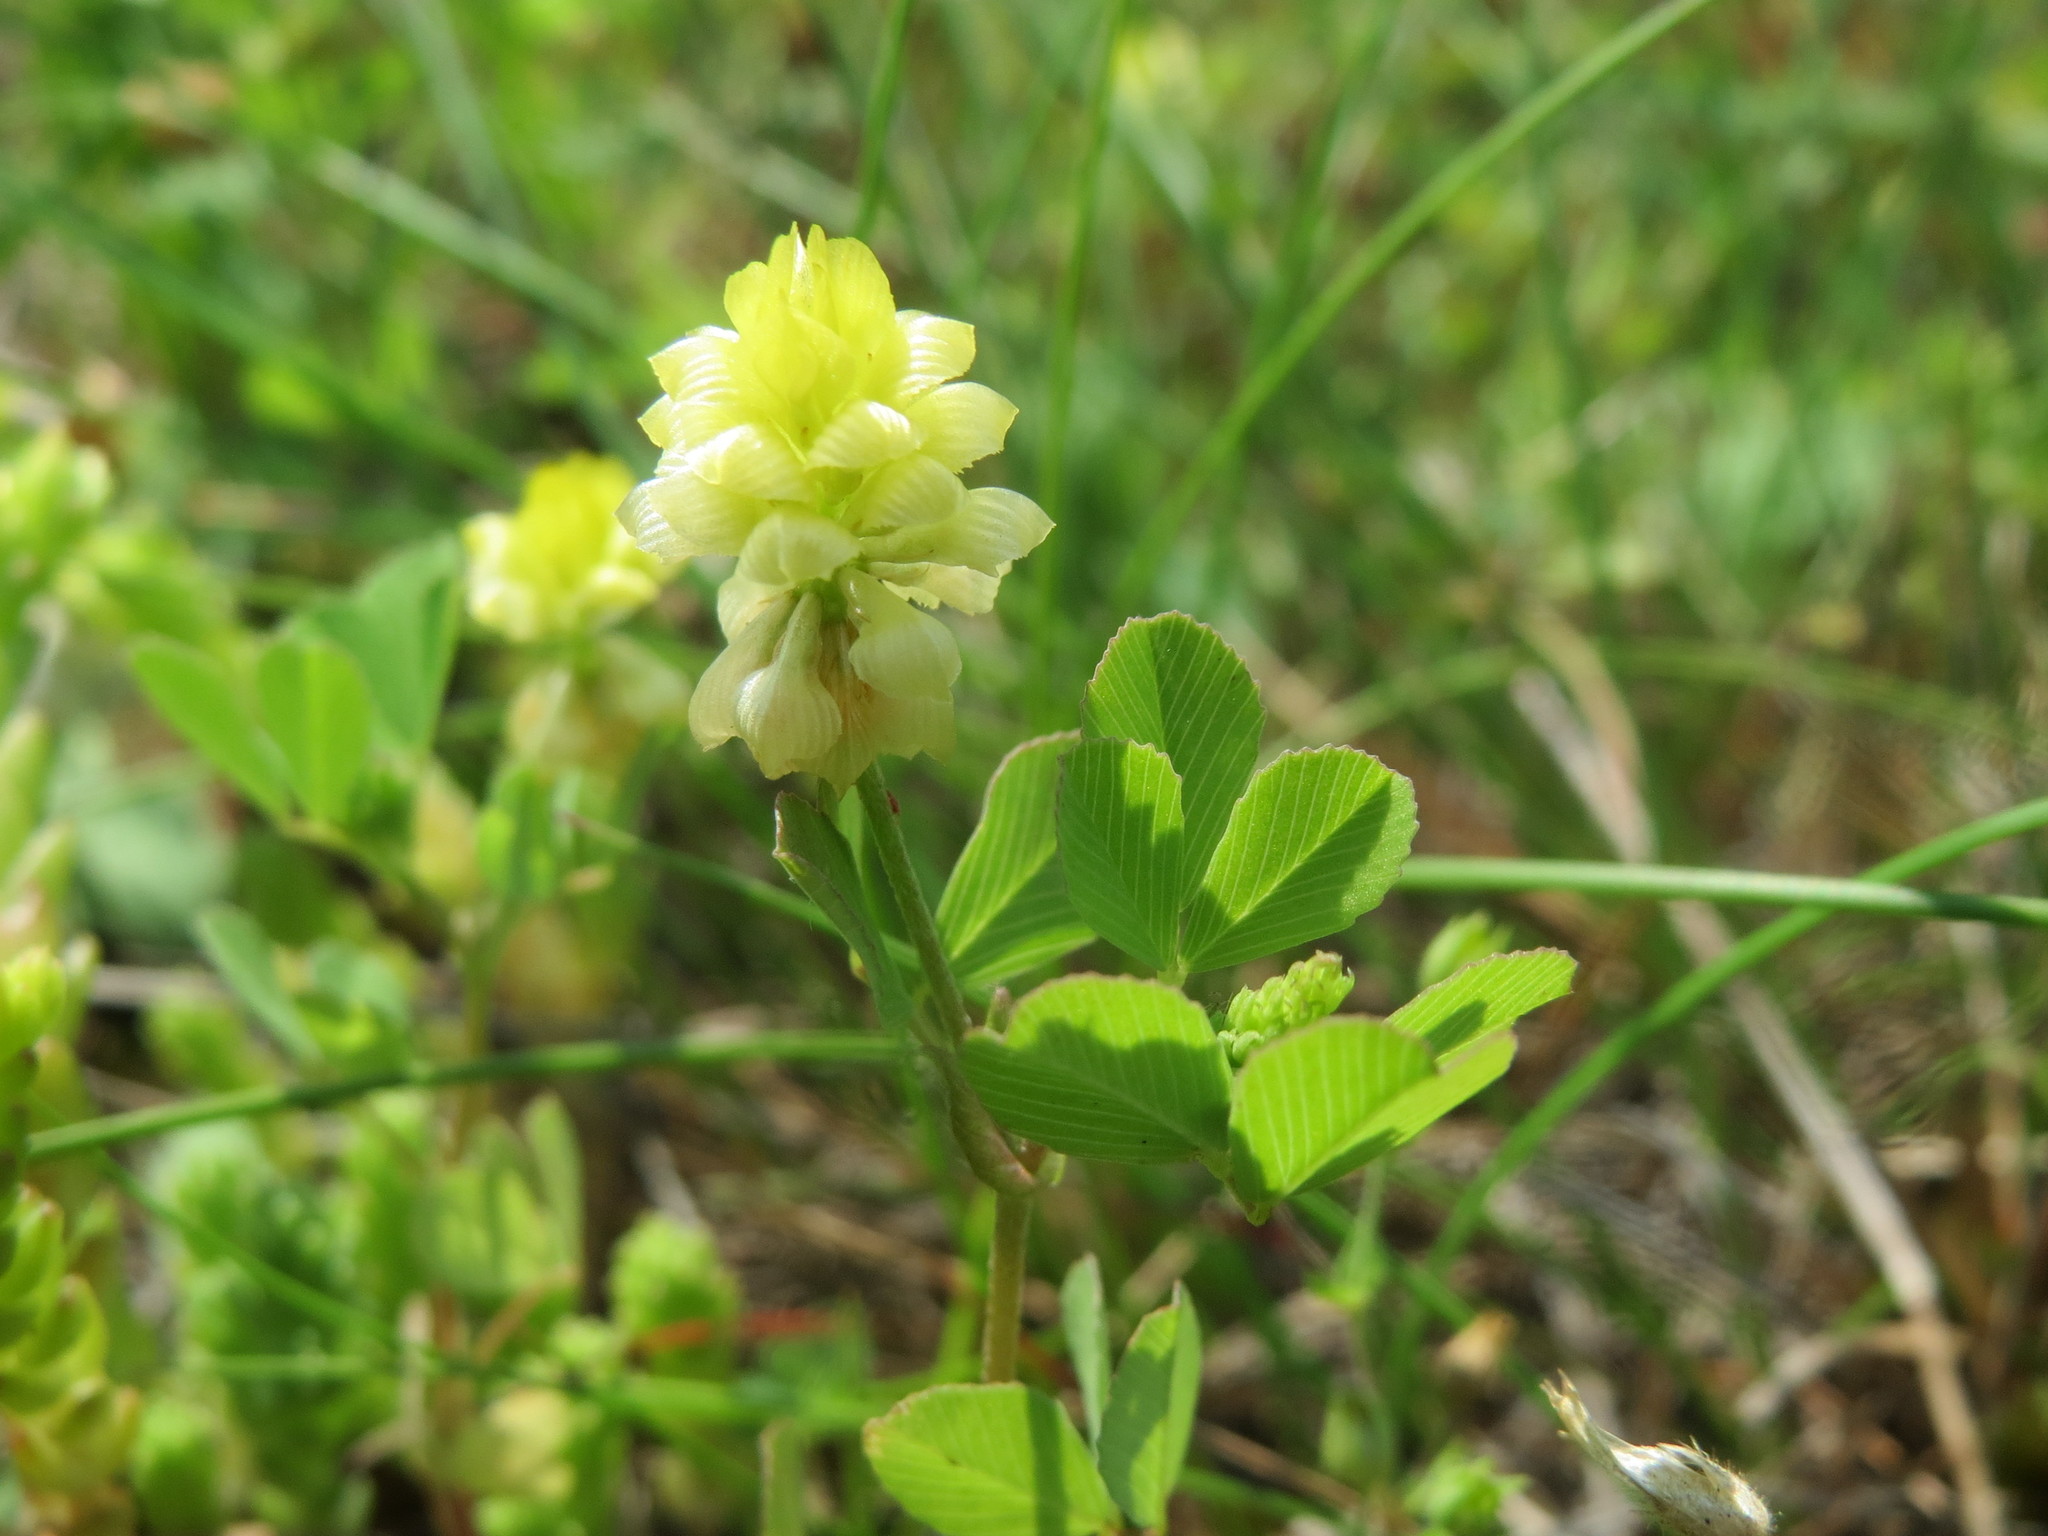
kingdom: Plantae
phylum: Tracheophyta
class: Magnoliopsida
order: Fabales
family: Fabaceae
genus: Trifolium
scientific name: Trifolium campestre
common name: Field clover
